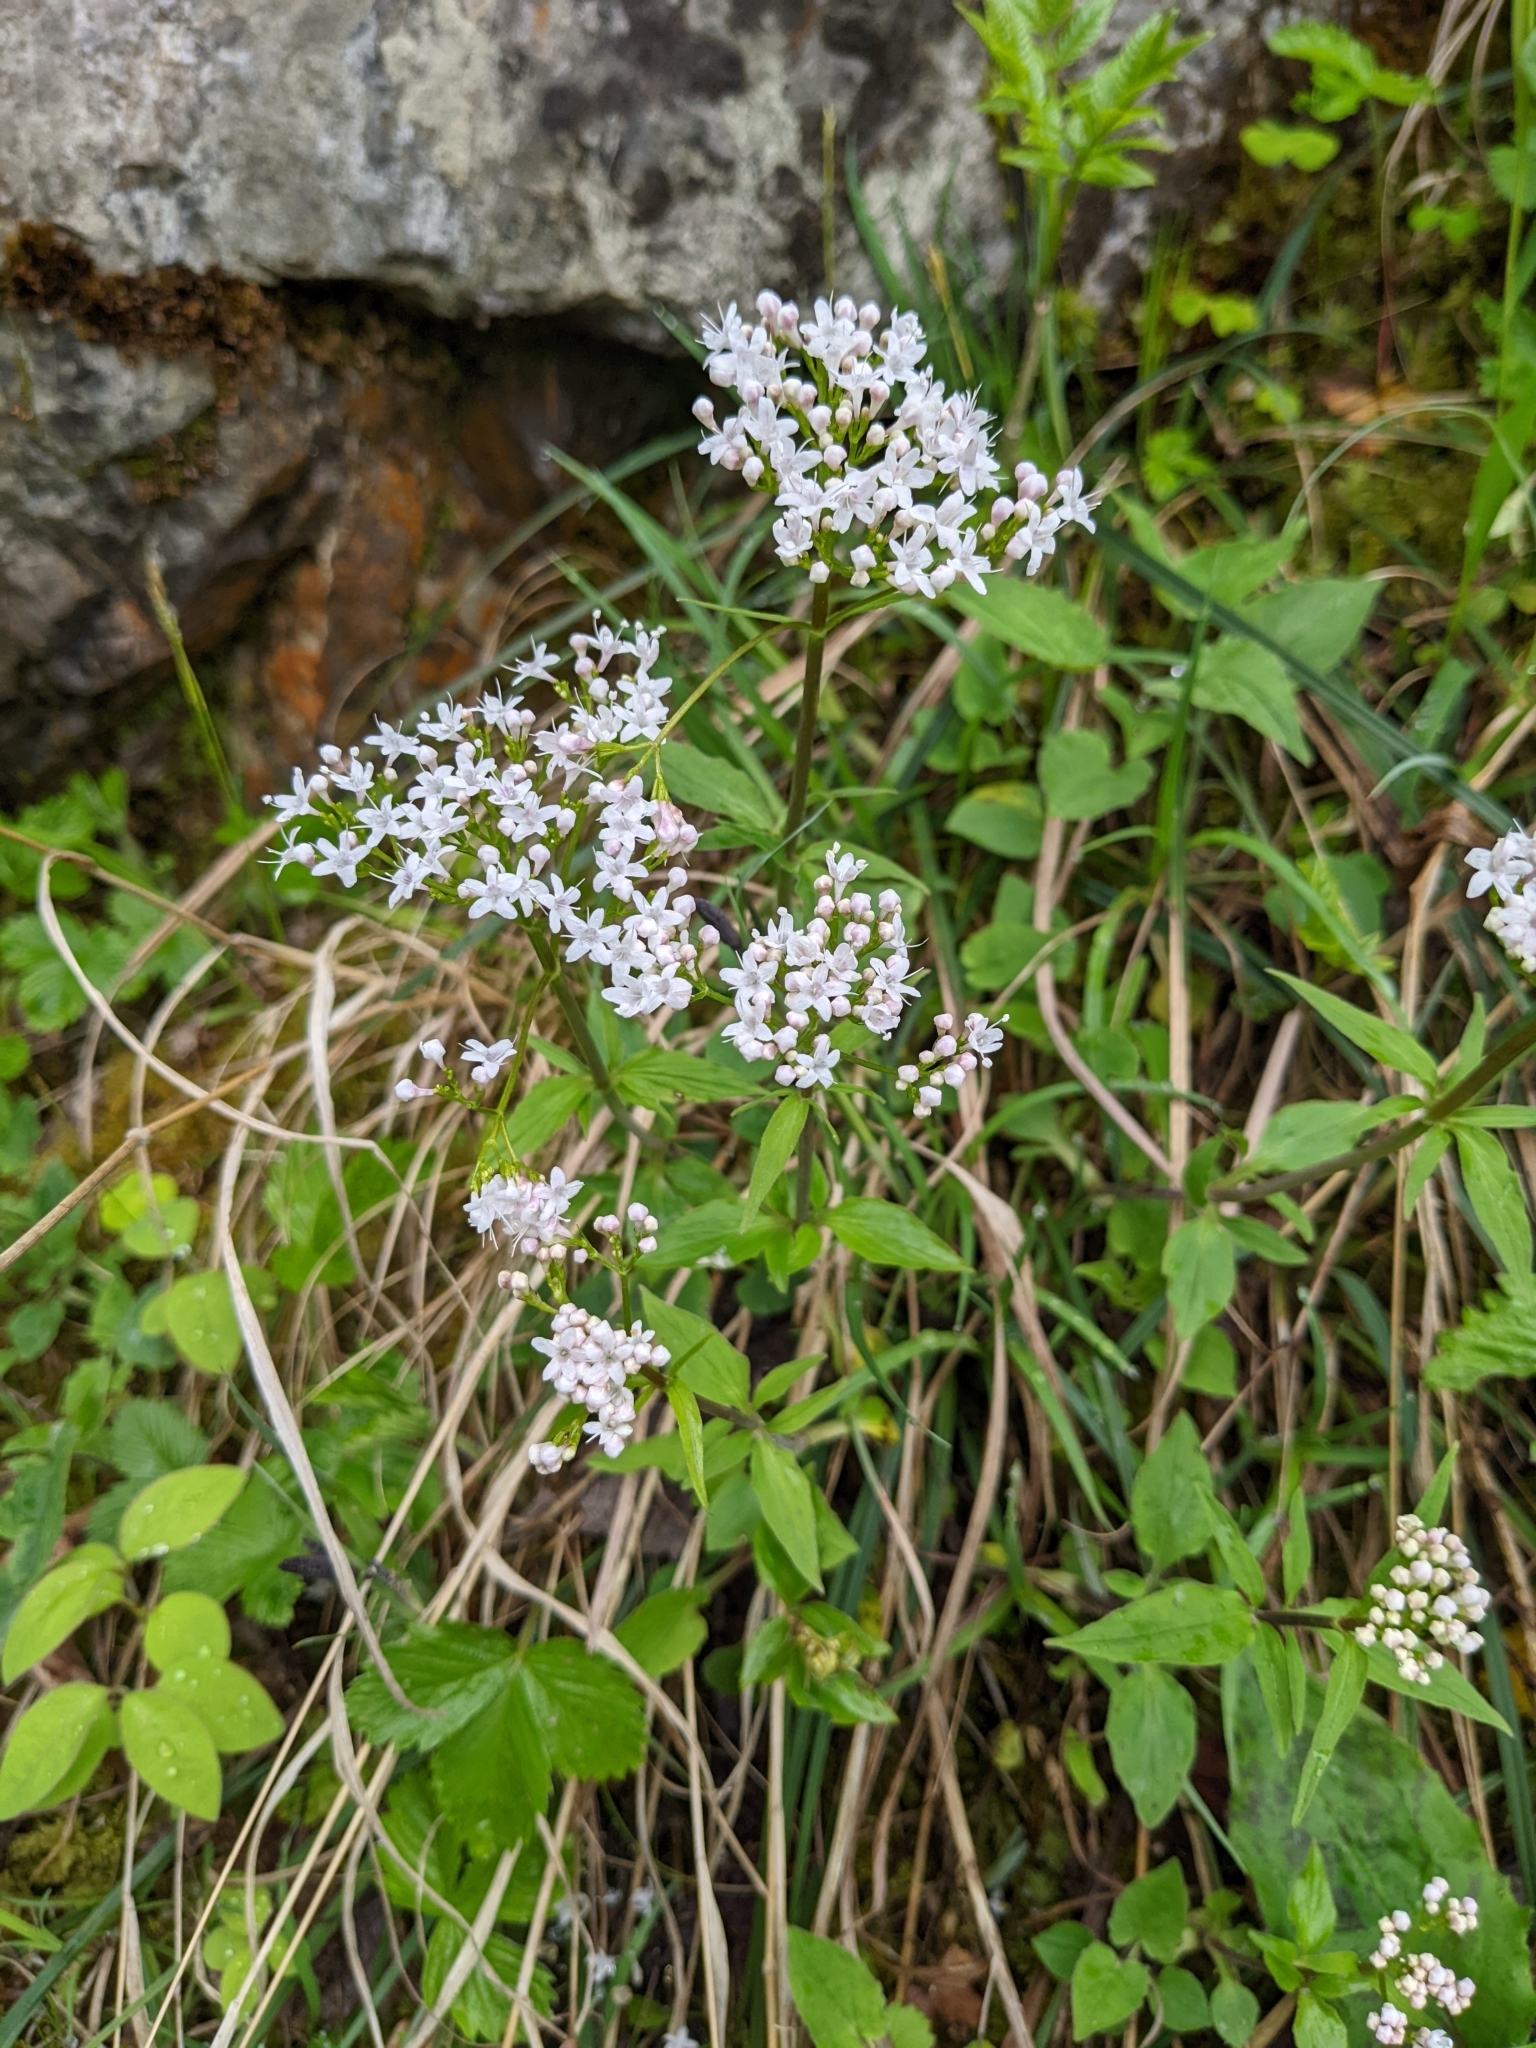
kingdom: Plantae
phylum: Tracheophyta
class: Magnoliopsida
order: Dipsacales
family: Caprifoliaceae
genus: Valeriana
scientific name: Valeriana tripteris
